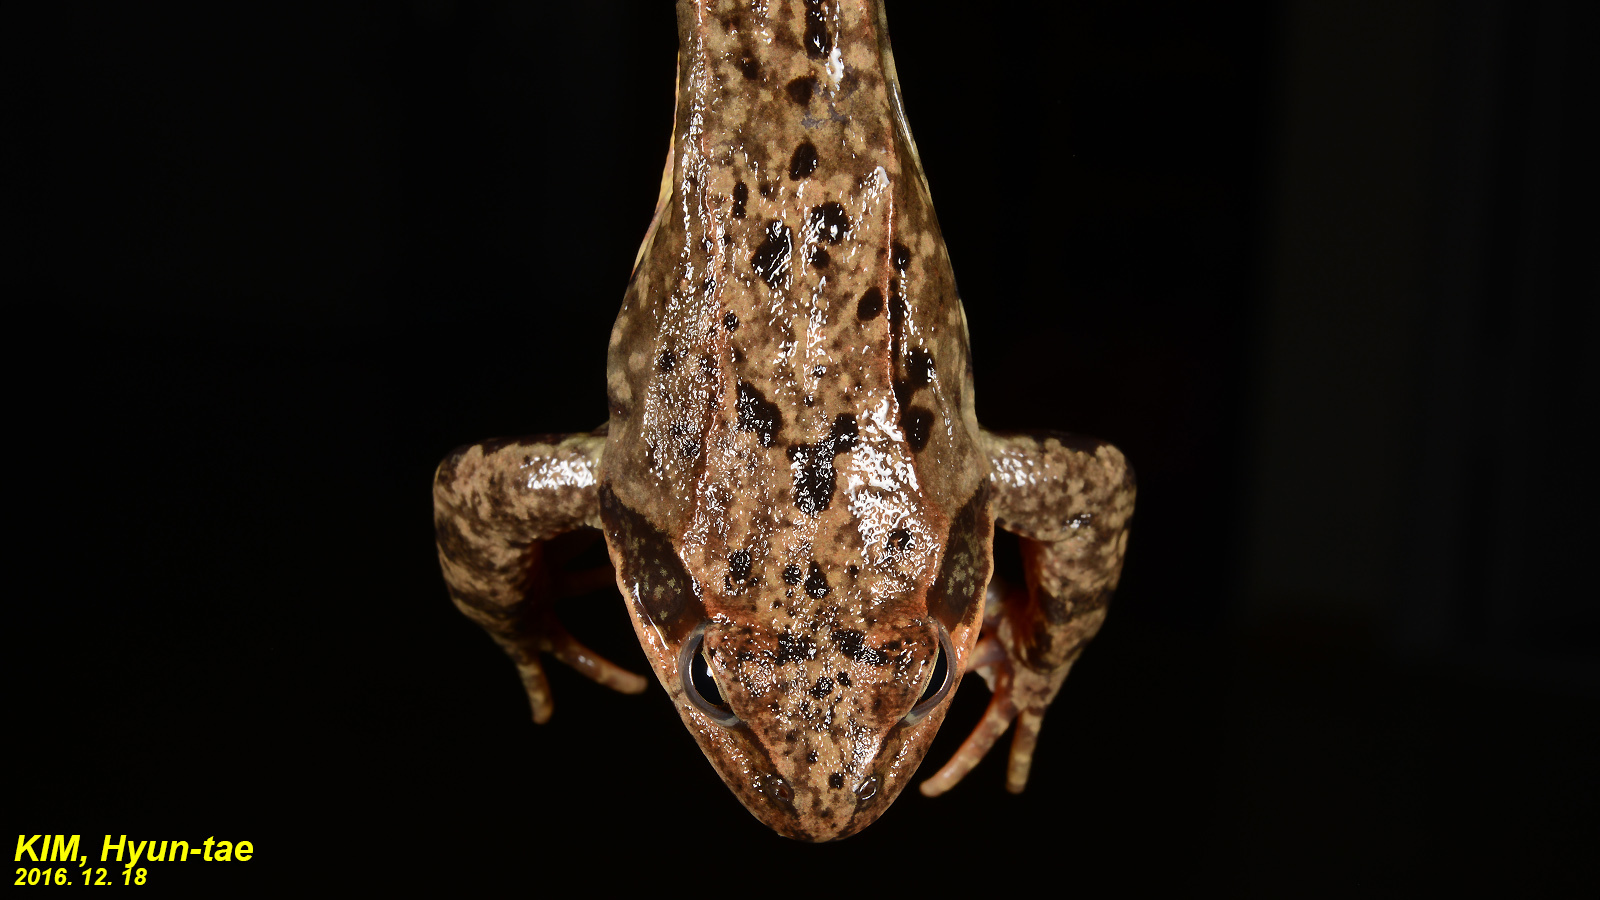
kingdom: Animalia
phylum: Chordata
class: Amphibia
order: Anura
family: Ranidae
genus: Rana
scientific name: Rana dybowskii
